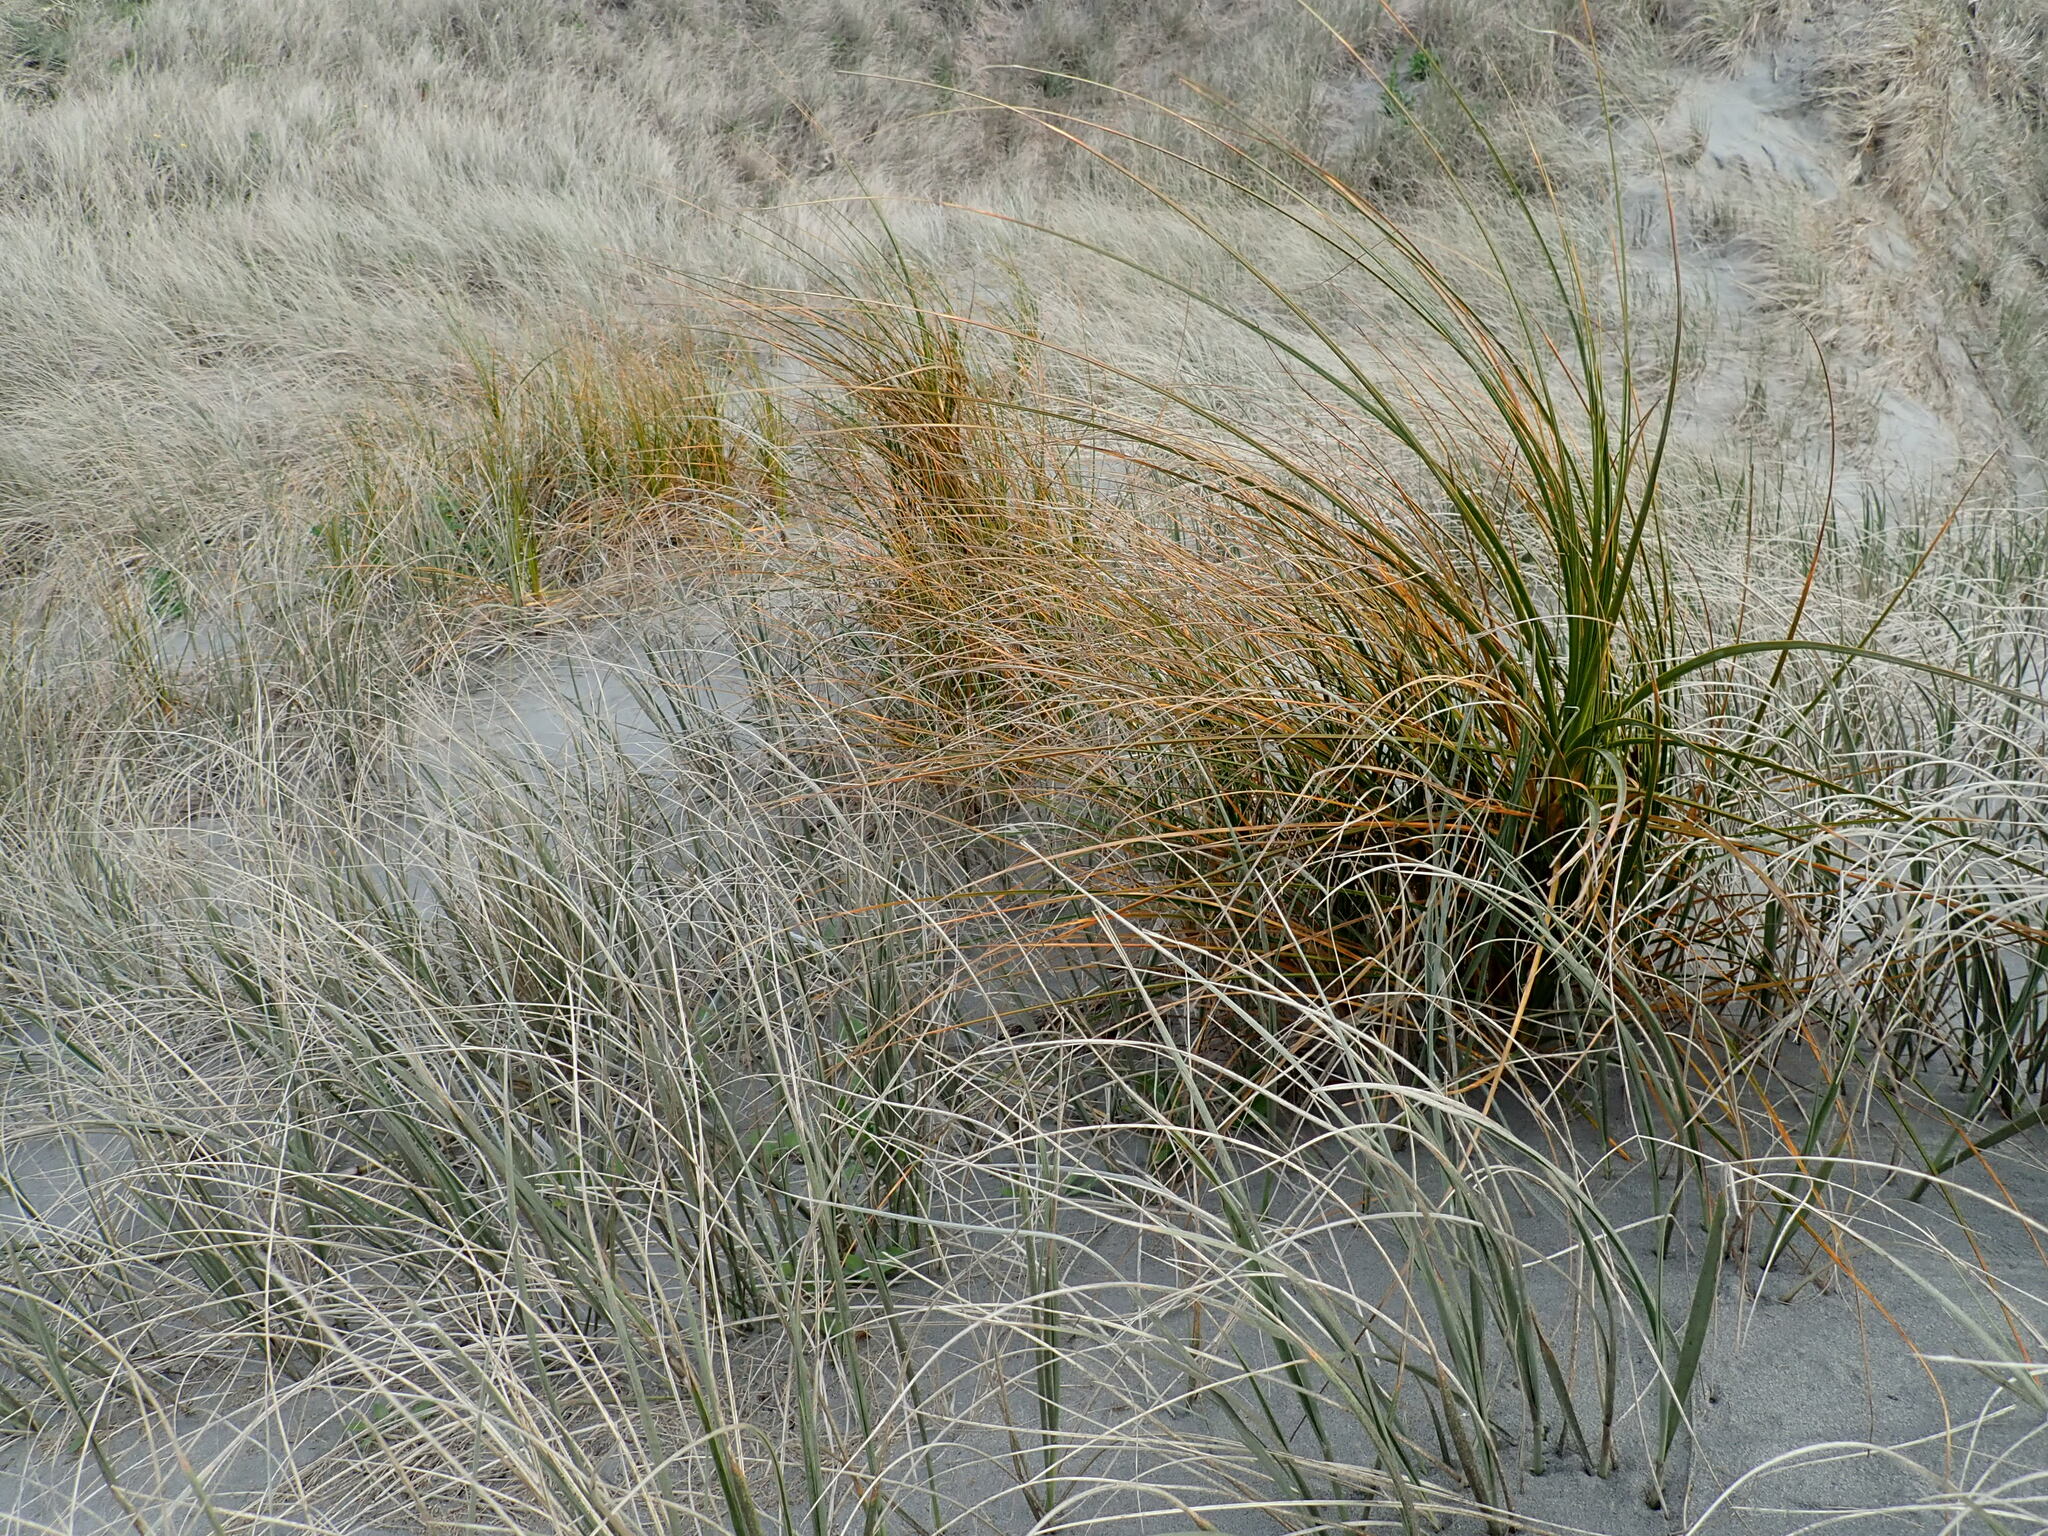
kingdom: Plantae
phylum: Tracheophyta
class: Liliopsida
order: Poales
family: Cyperaceae
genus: Ficinia
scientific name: Ficinia spiralis
